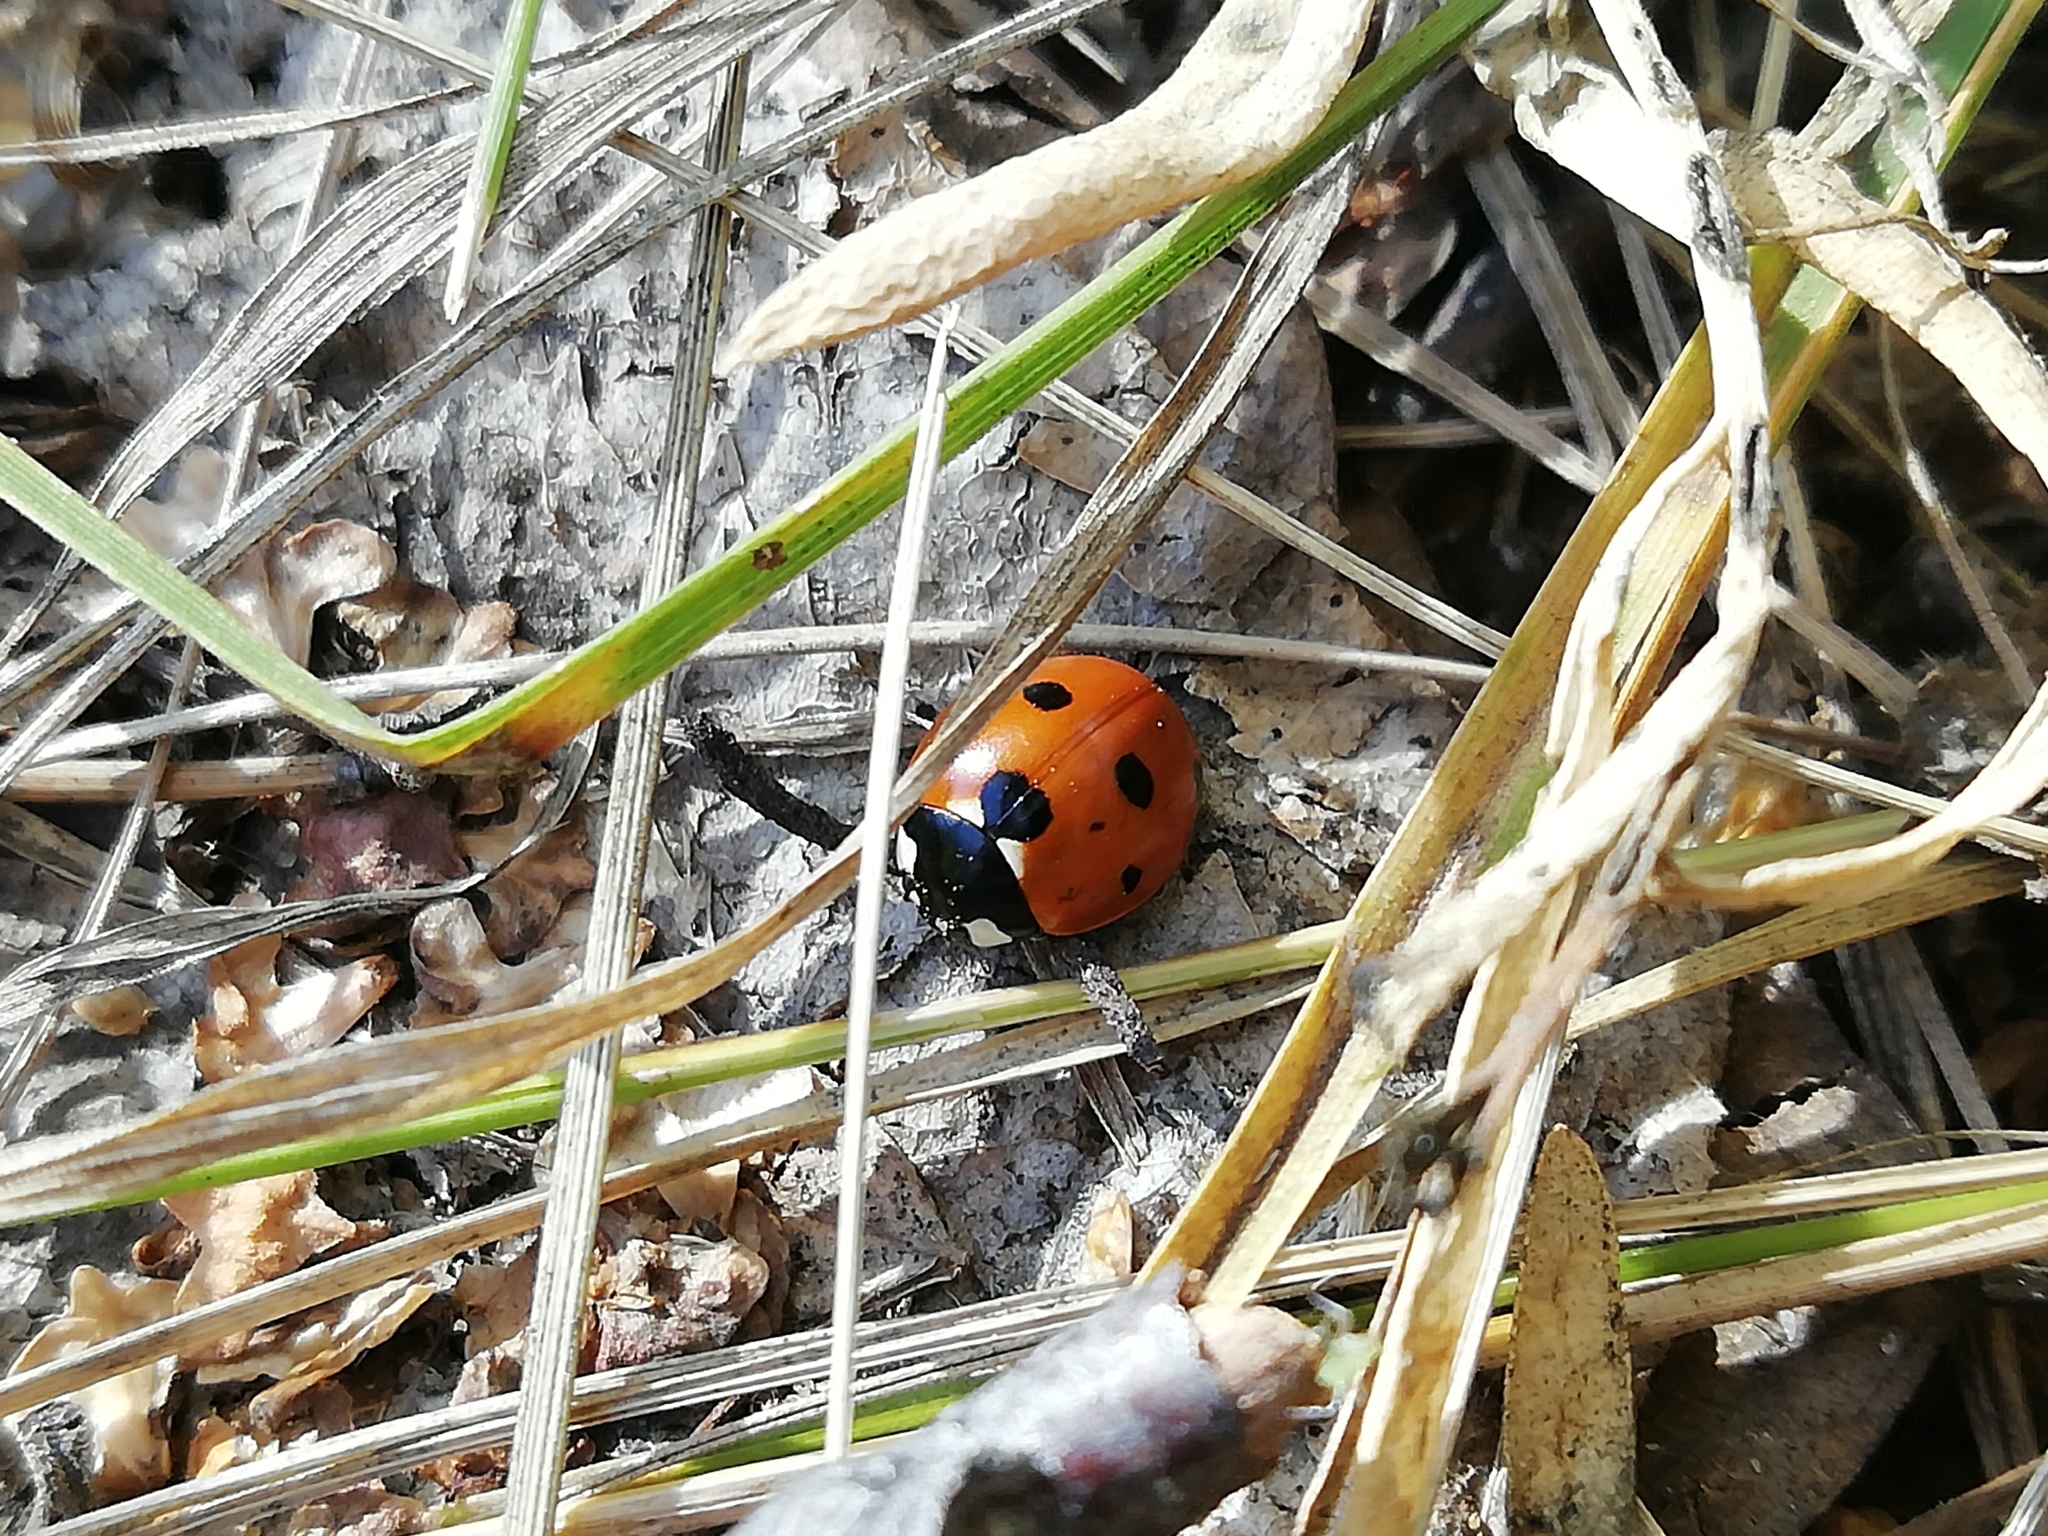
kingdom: Animalia
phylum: Arthropoda
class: Insecta
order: Coleoptera
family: Coccinellidae
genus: Coccinella
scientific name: Coccinella septempunctata
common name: Sevenspotted lady beetle
